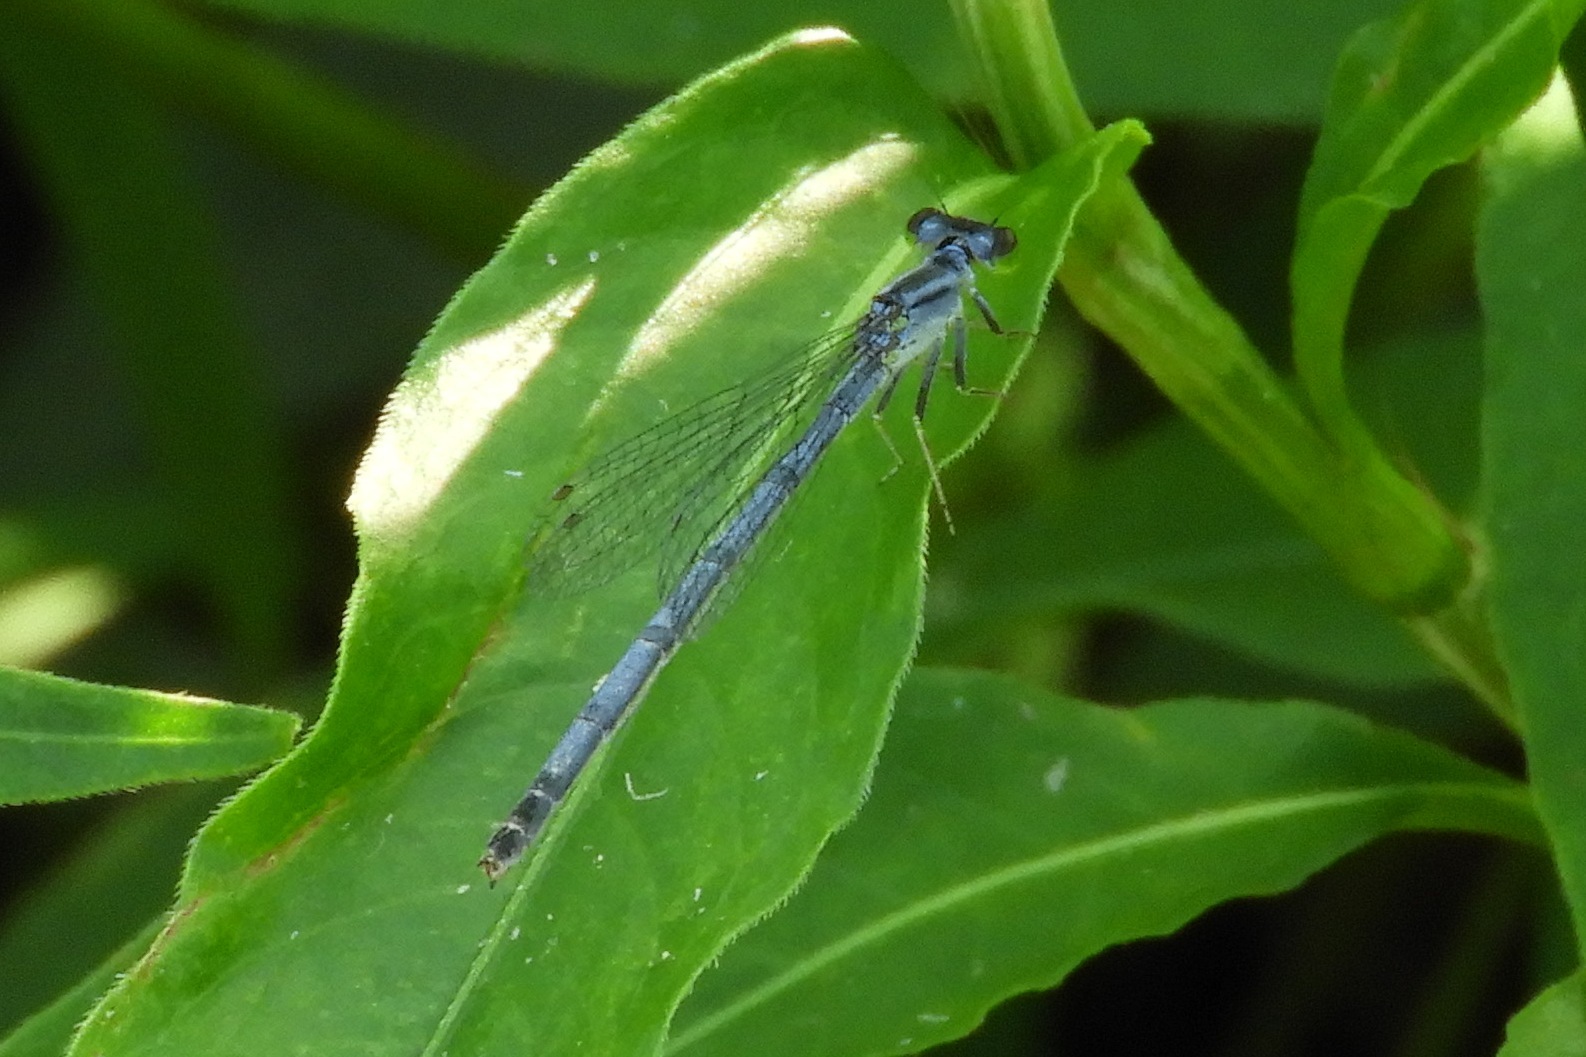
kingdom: Animalia
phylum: Arthropoda
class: Insecta
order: Odonata
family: Coenagrionidae
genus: Ischnura
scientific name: Ischnura verticalis
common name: Eastern forktail
